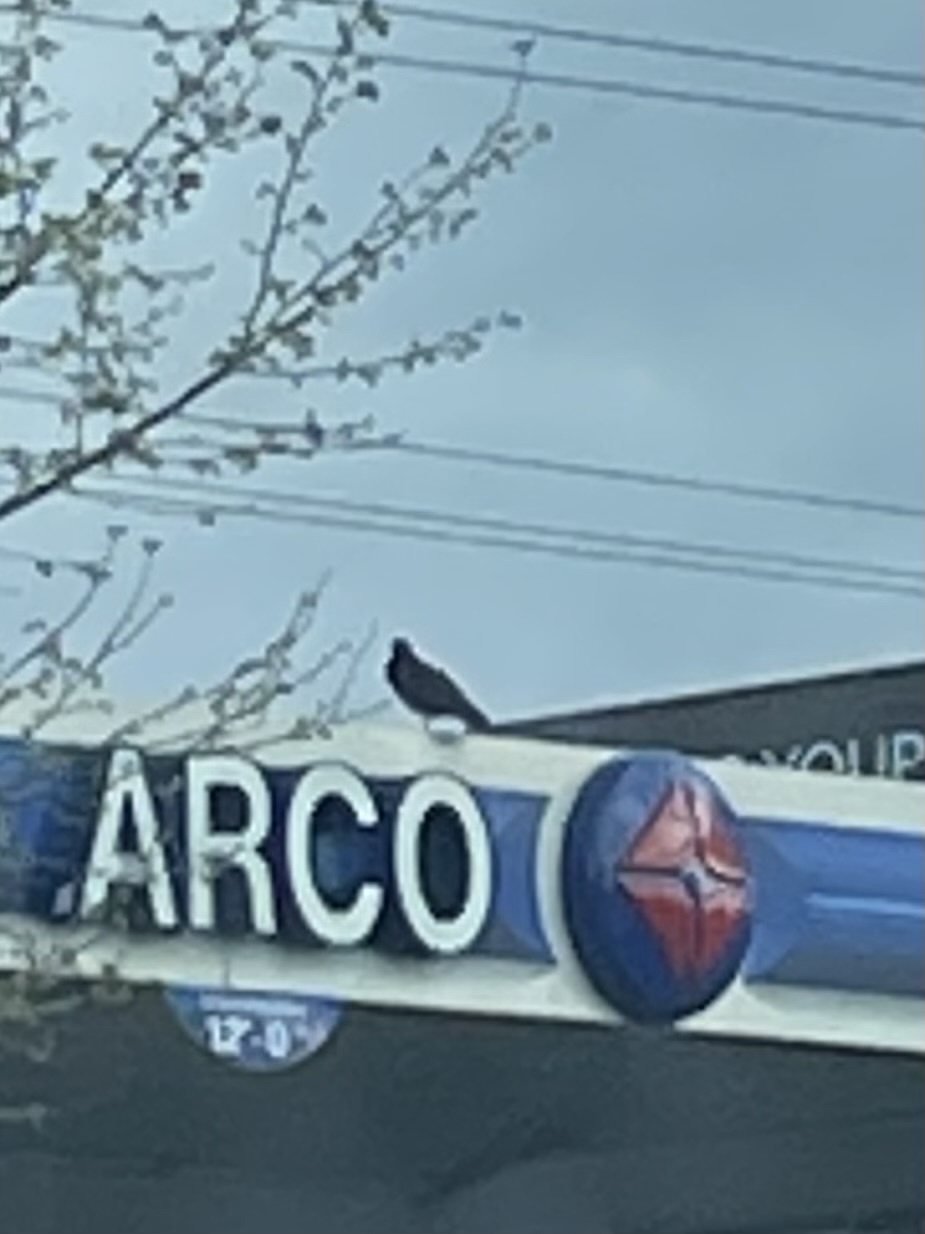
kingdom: Animalia
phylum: Chordata
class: Aves
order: Columbiformes
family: Columbidae
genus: Columba
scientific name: Columba livia
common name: Rock pigeon
